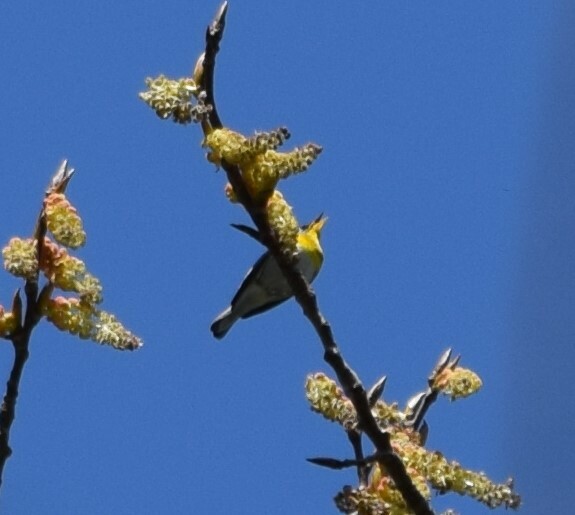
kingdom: Animalia
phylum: Chordata
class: Aves
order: Passeriformes
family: Parulidae
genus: Setophaga
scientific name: Setophaga americana
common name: Northern parula
